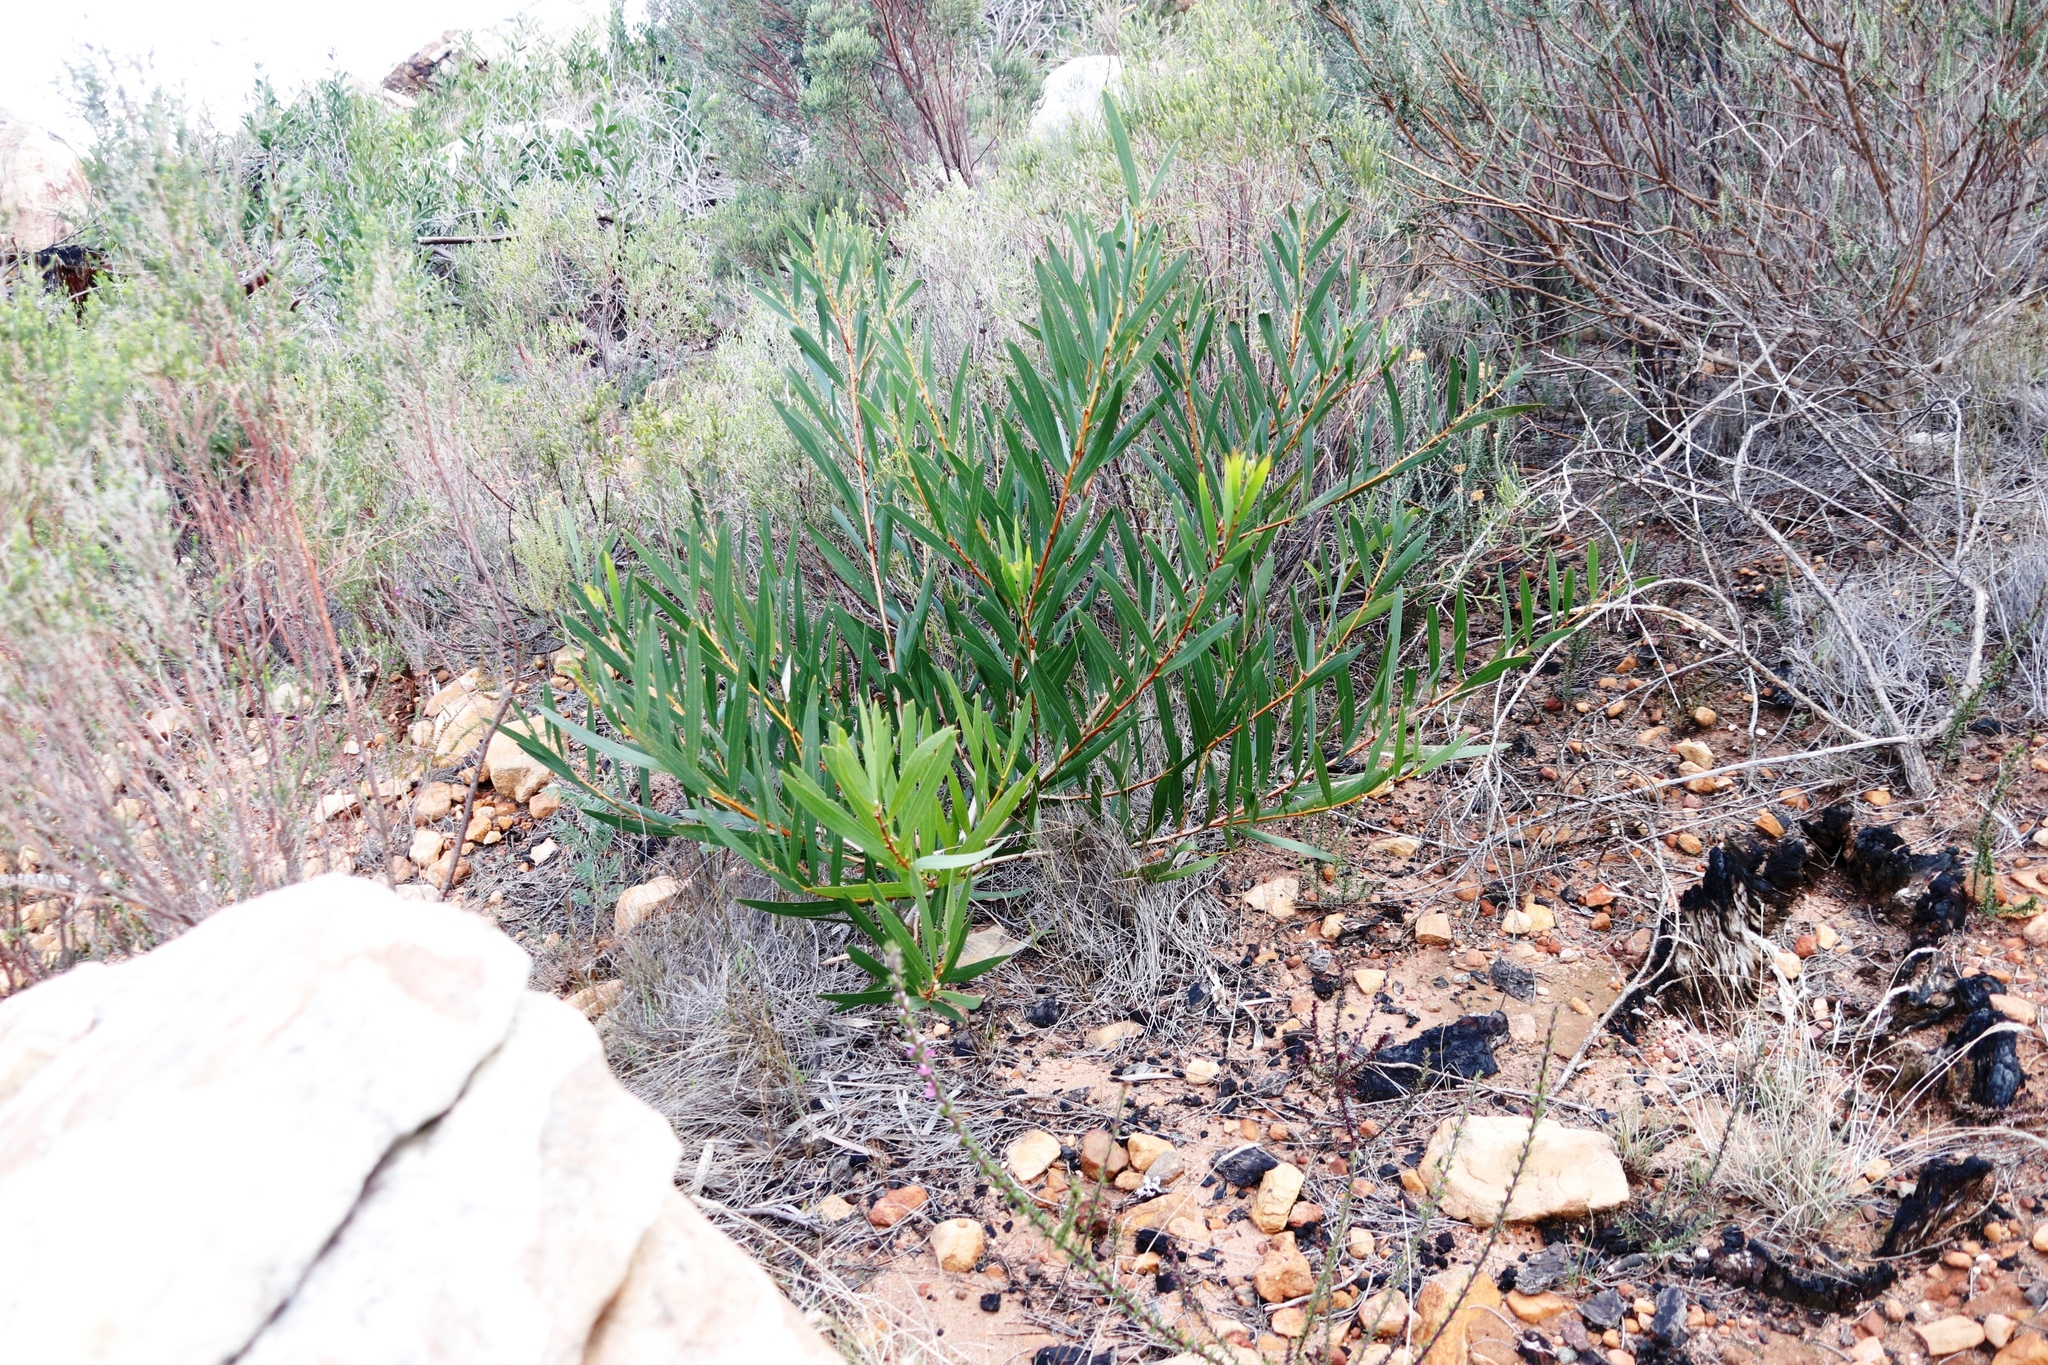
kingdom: Plantae
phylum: Tracheophyta
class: Magnoliopsida
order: Fabales
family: Fabaceae
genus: Acacia
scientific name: Acacia longifolia
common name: Sydney golden wattle
